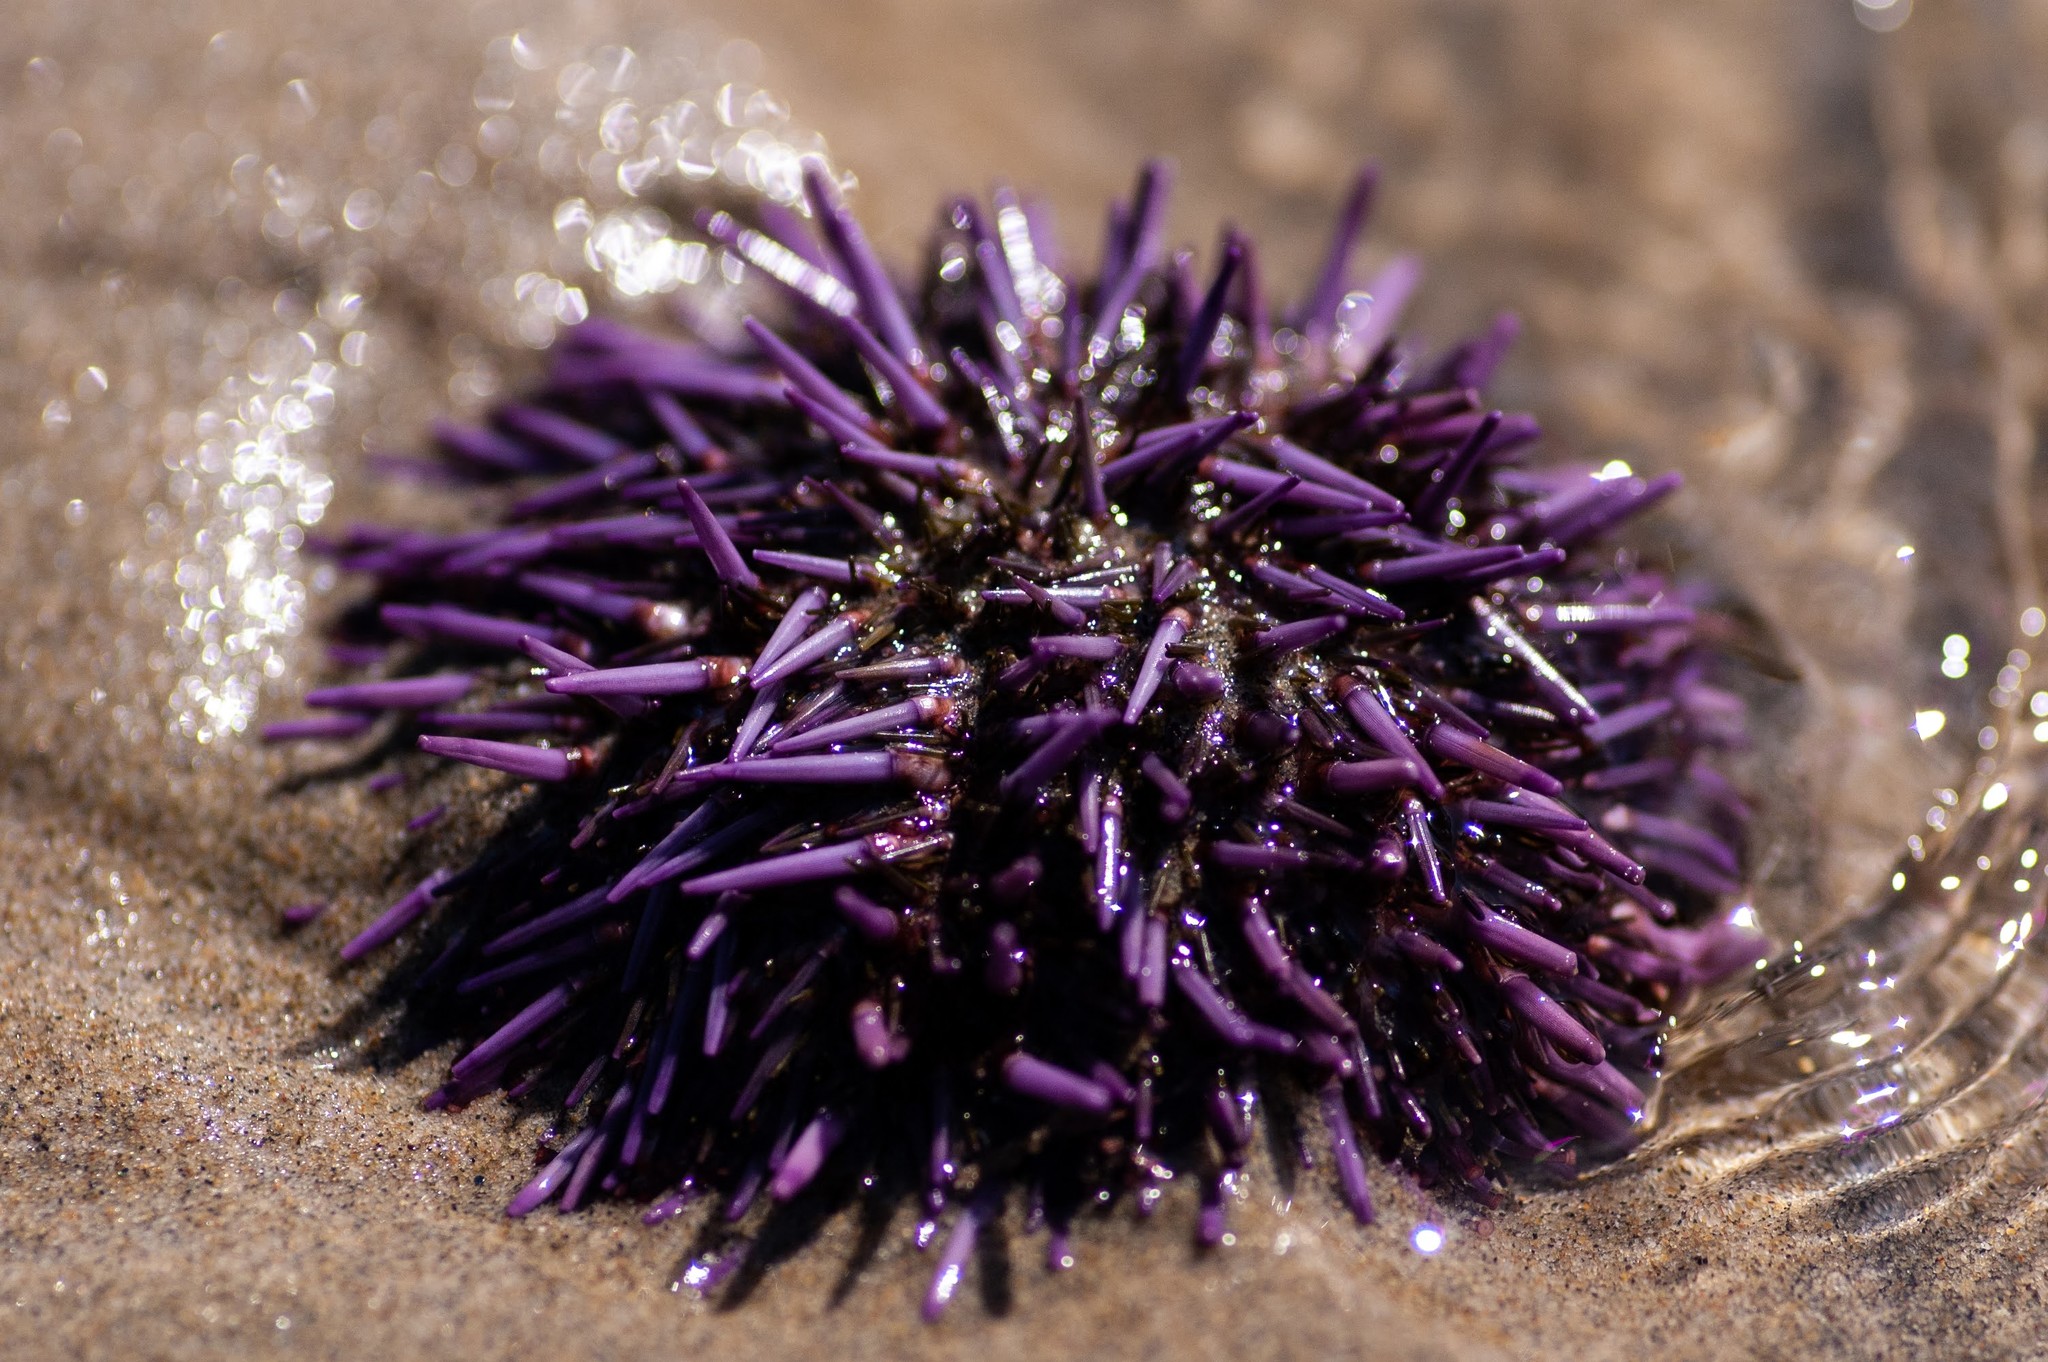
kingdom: Animalia
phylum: Echinodermata
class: Echinoidea
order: Camarodonta
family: Strongylocentrotidae
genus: Strongylocentrotus
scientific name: Strongylocentrotus purpuratus
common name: Purple sea urchin
